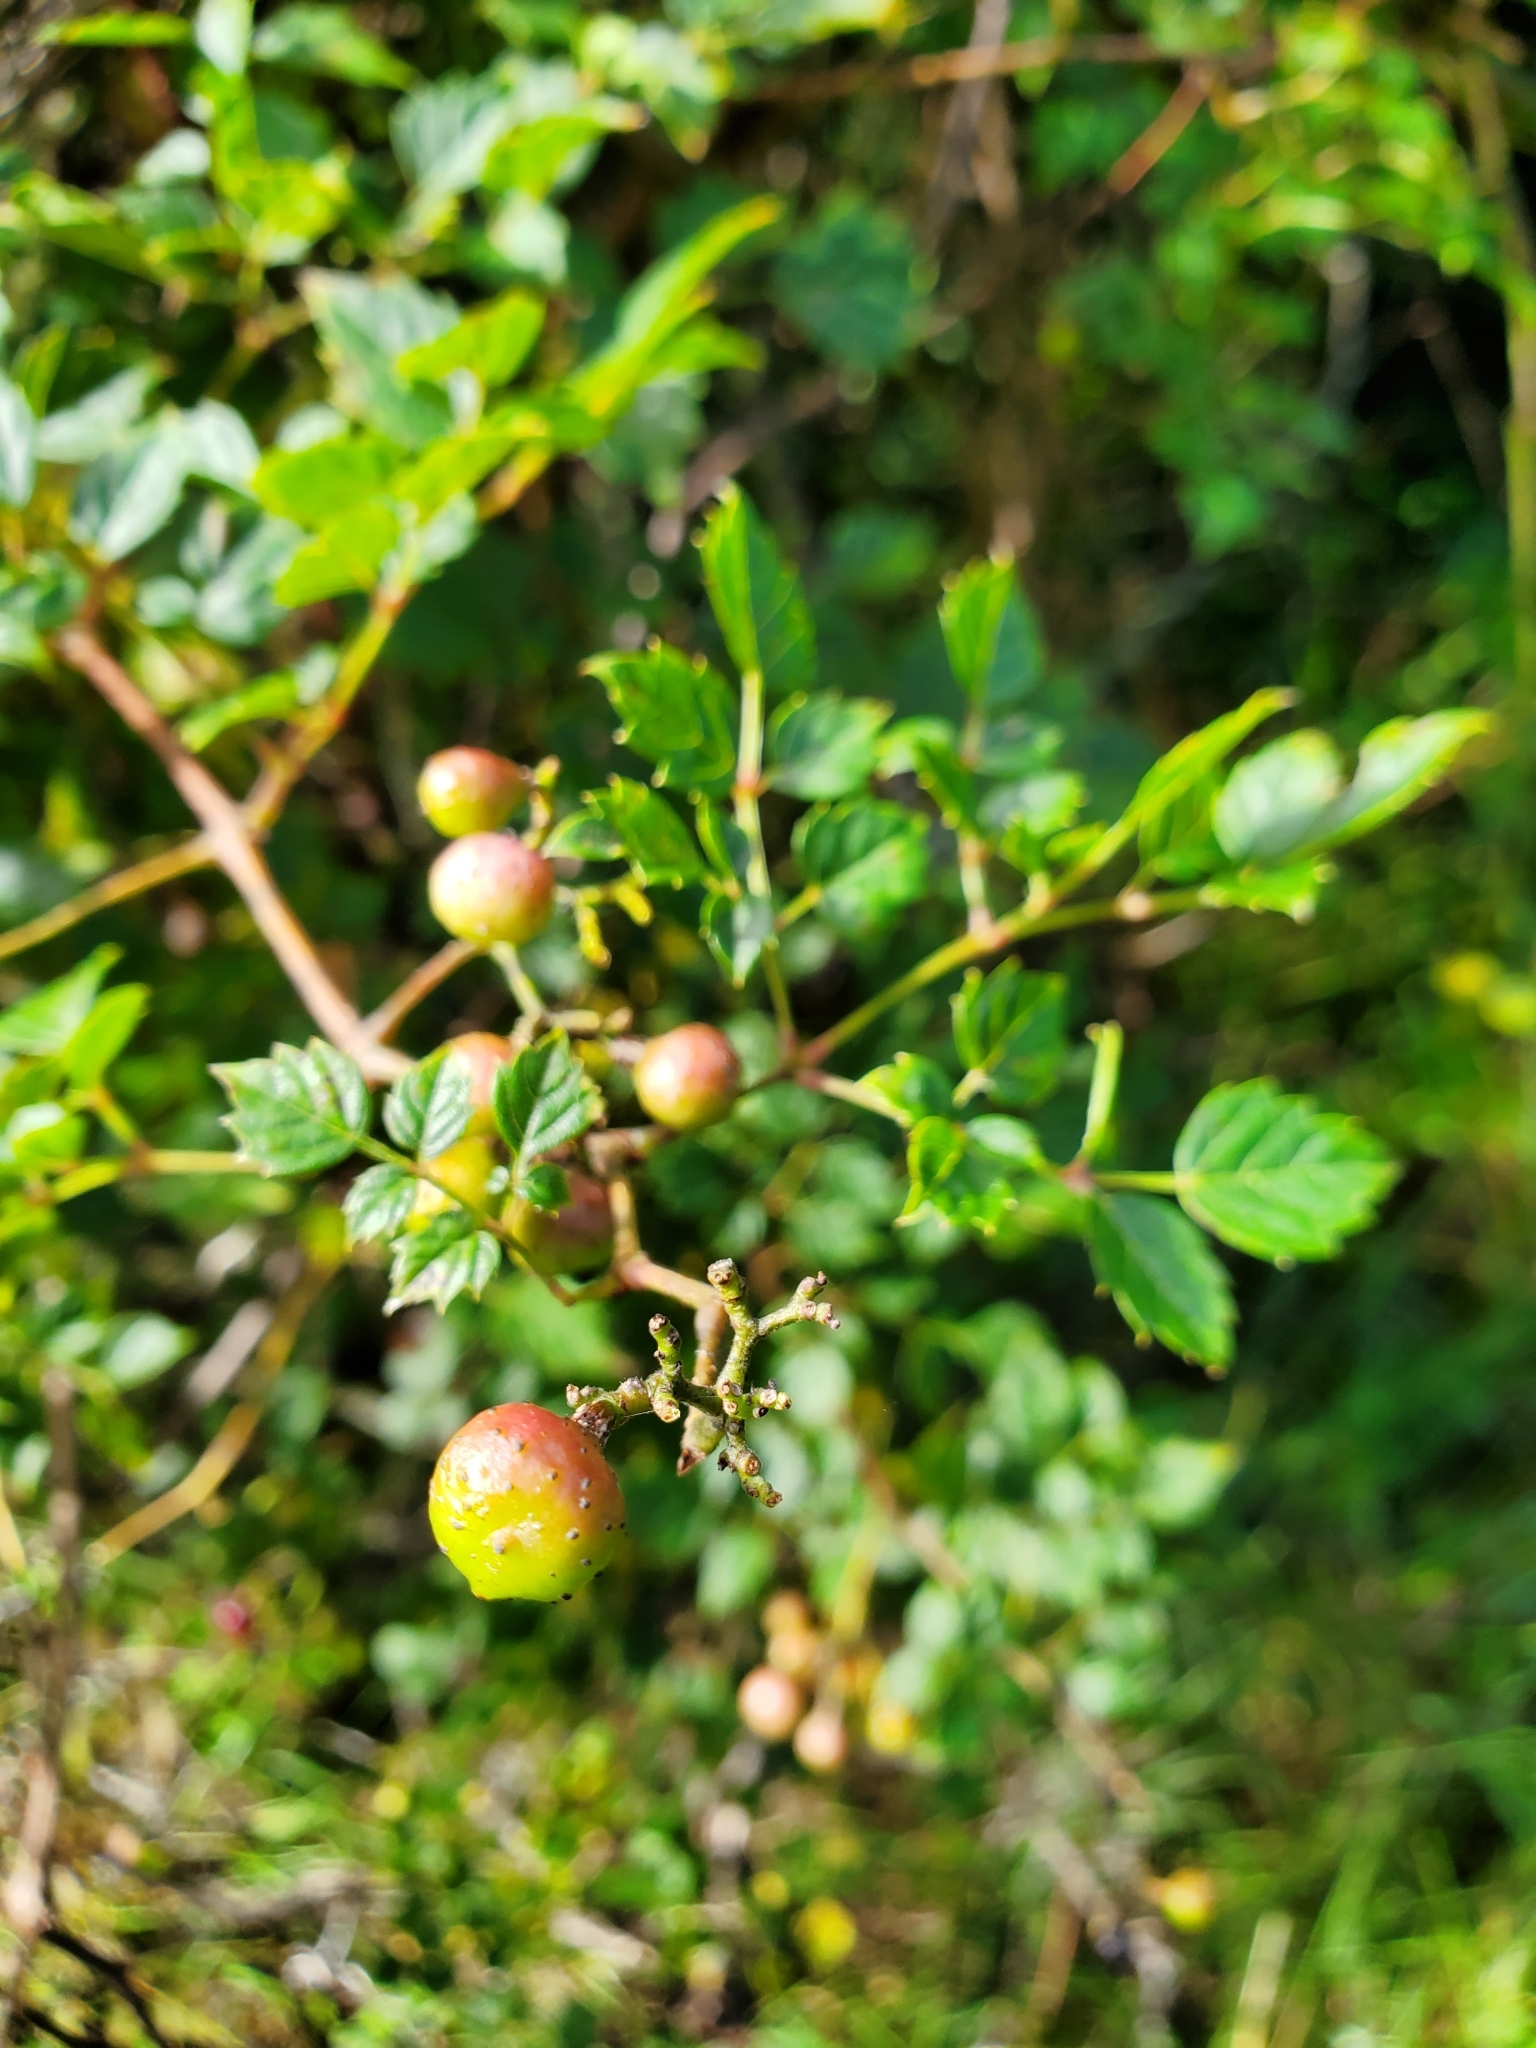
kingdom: Plantae
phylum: Tracheophyta
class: Magnoliopsida
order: Vitales
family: Vitaceae
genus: Nekemias
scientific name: Nekemias arborea
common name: Peppervine
